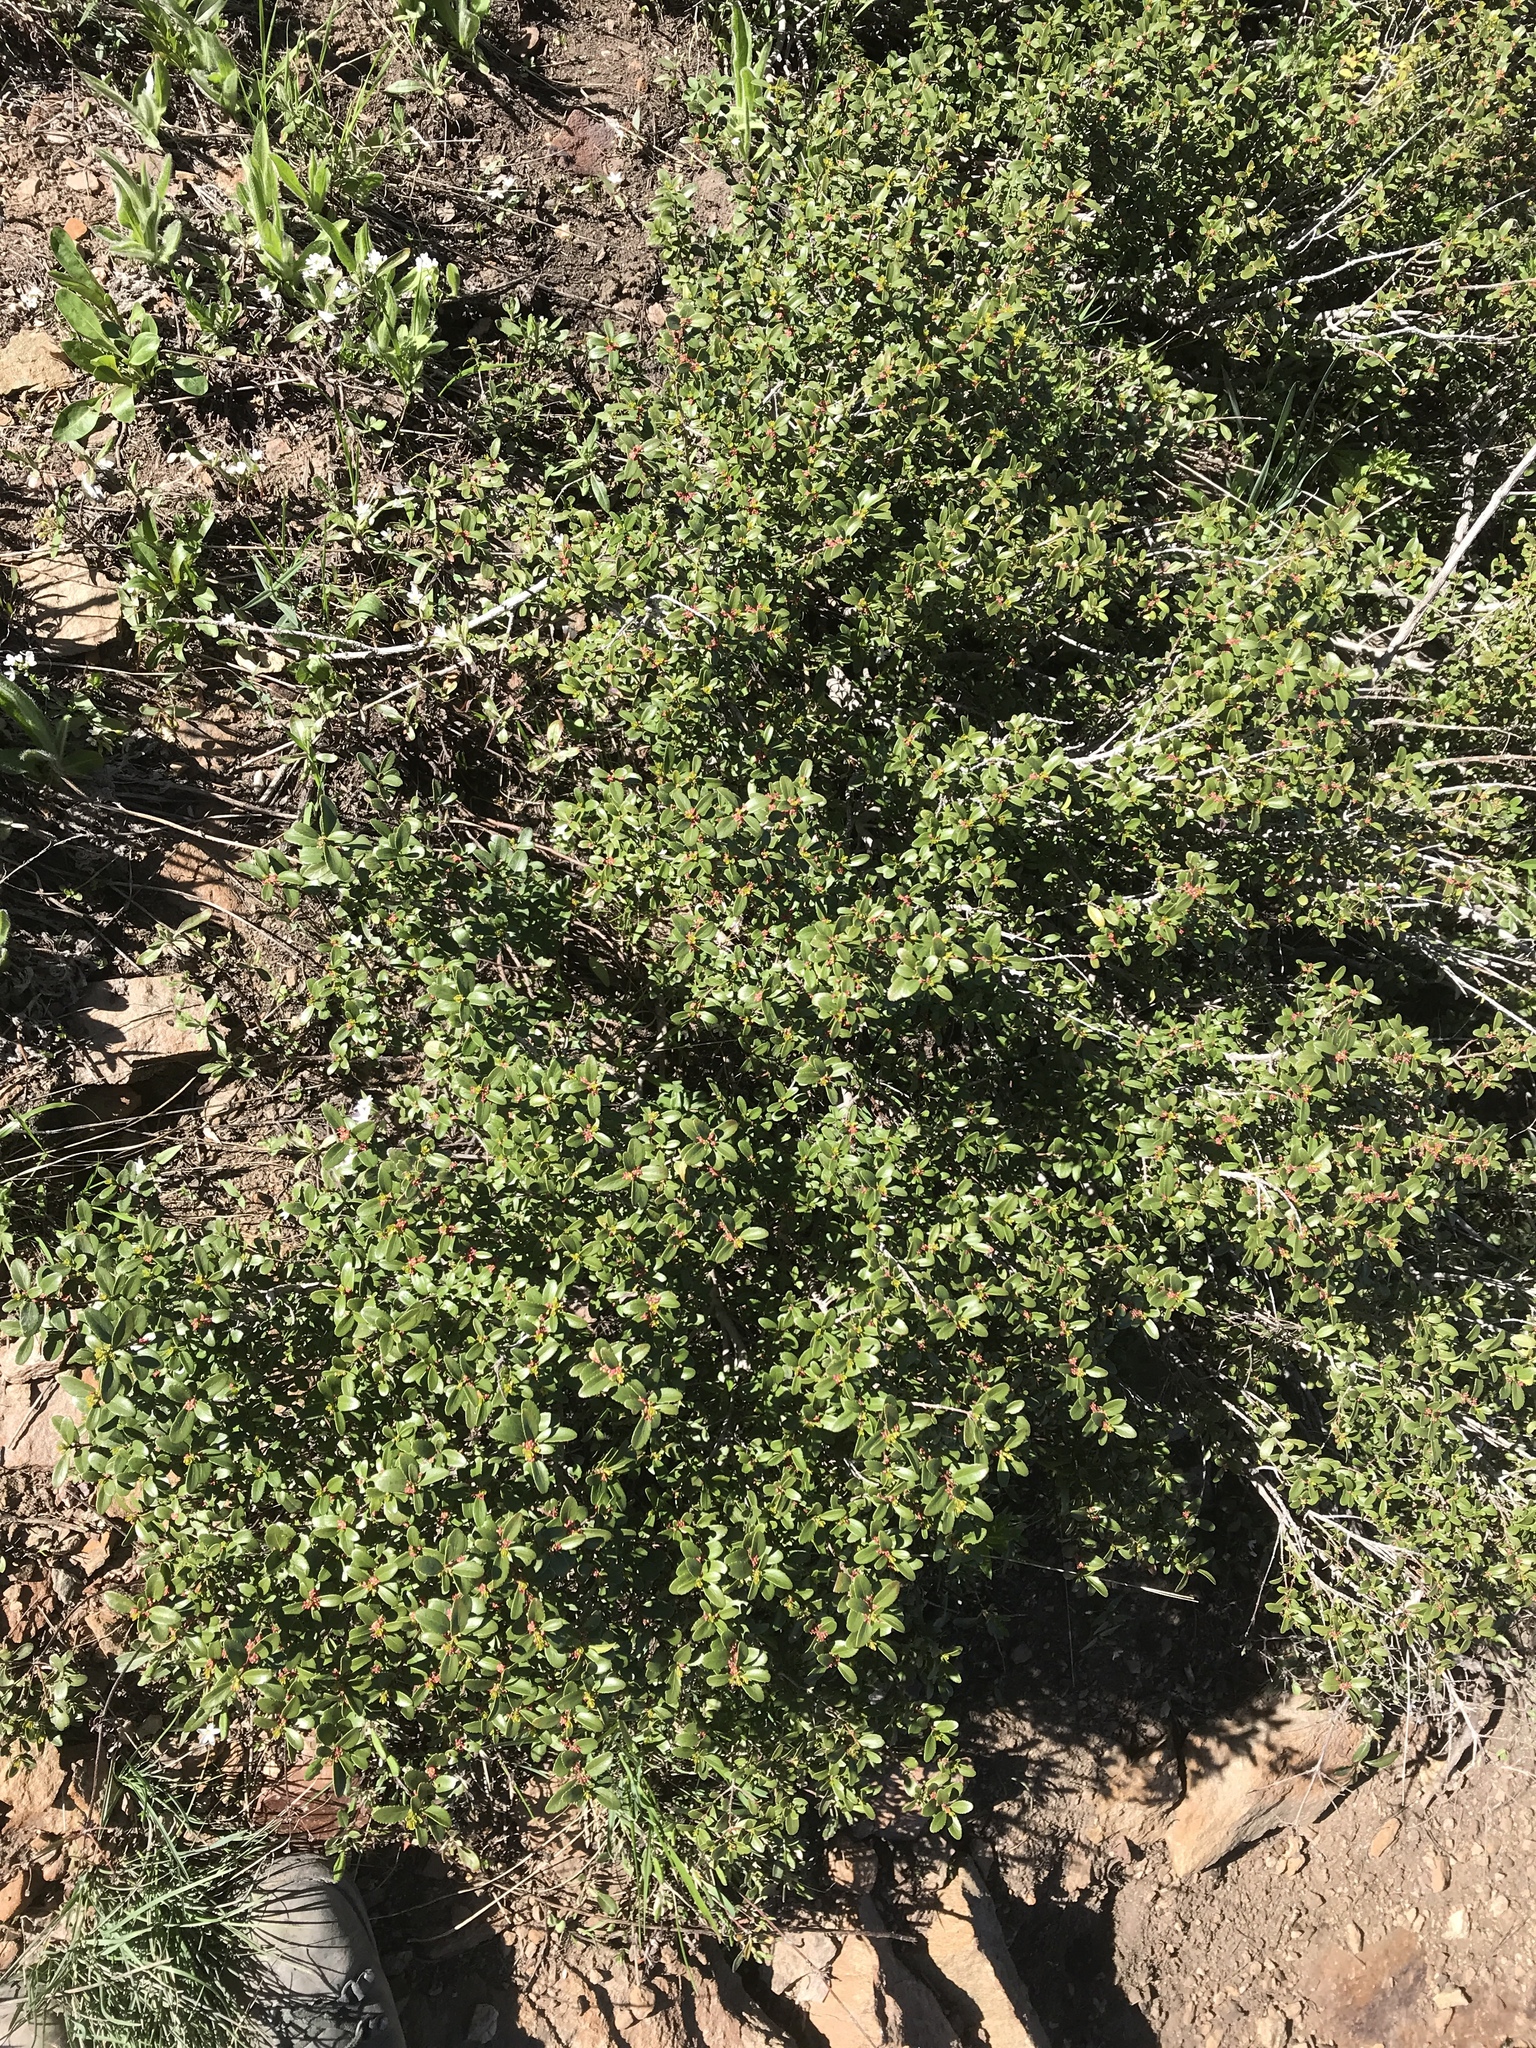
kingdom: Plantae
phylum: Tracheophyta
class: Magnoliopsida
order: Celastrales
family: Celastraceae
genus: Paxistima
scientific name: Paxistima myrsinites
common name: Mountain-lover
